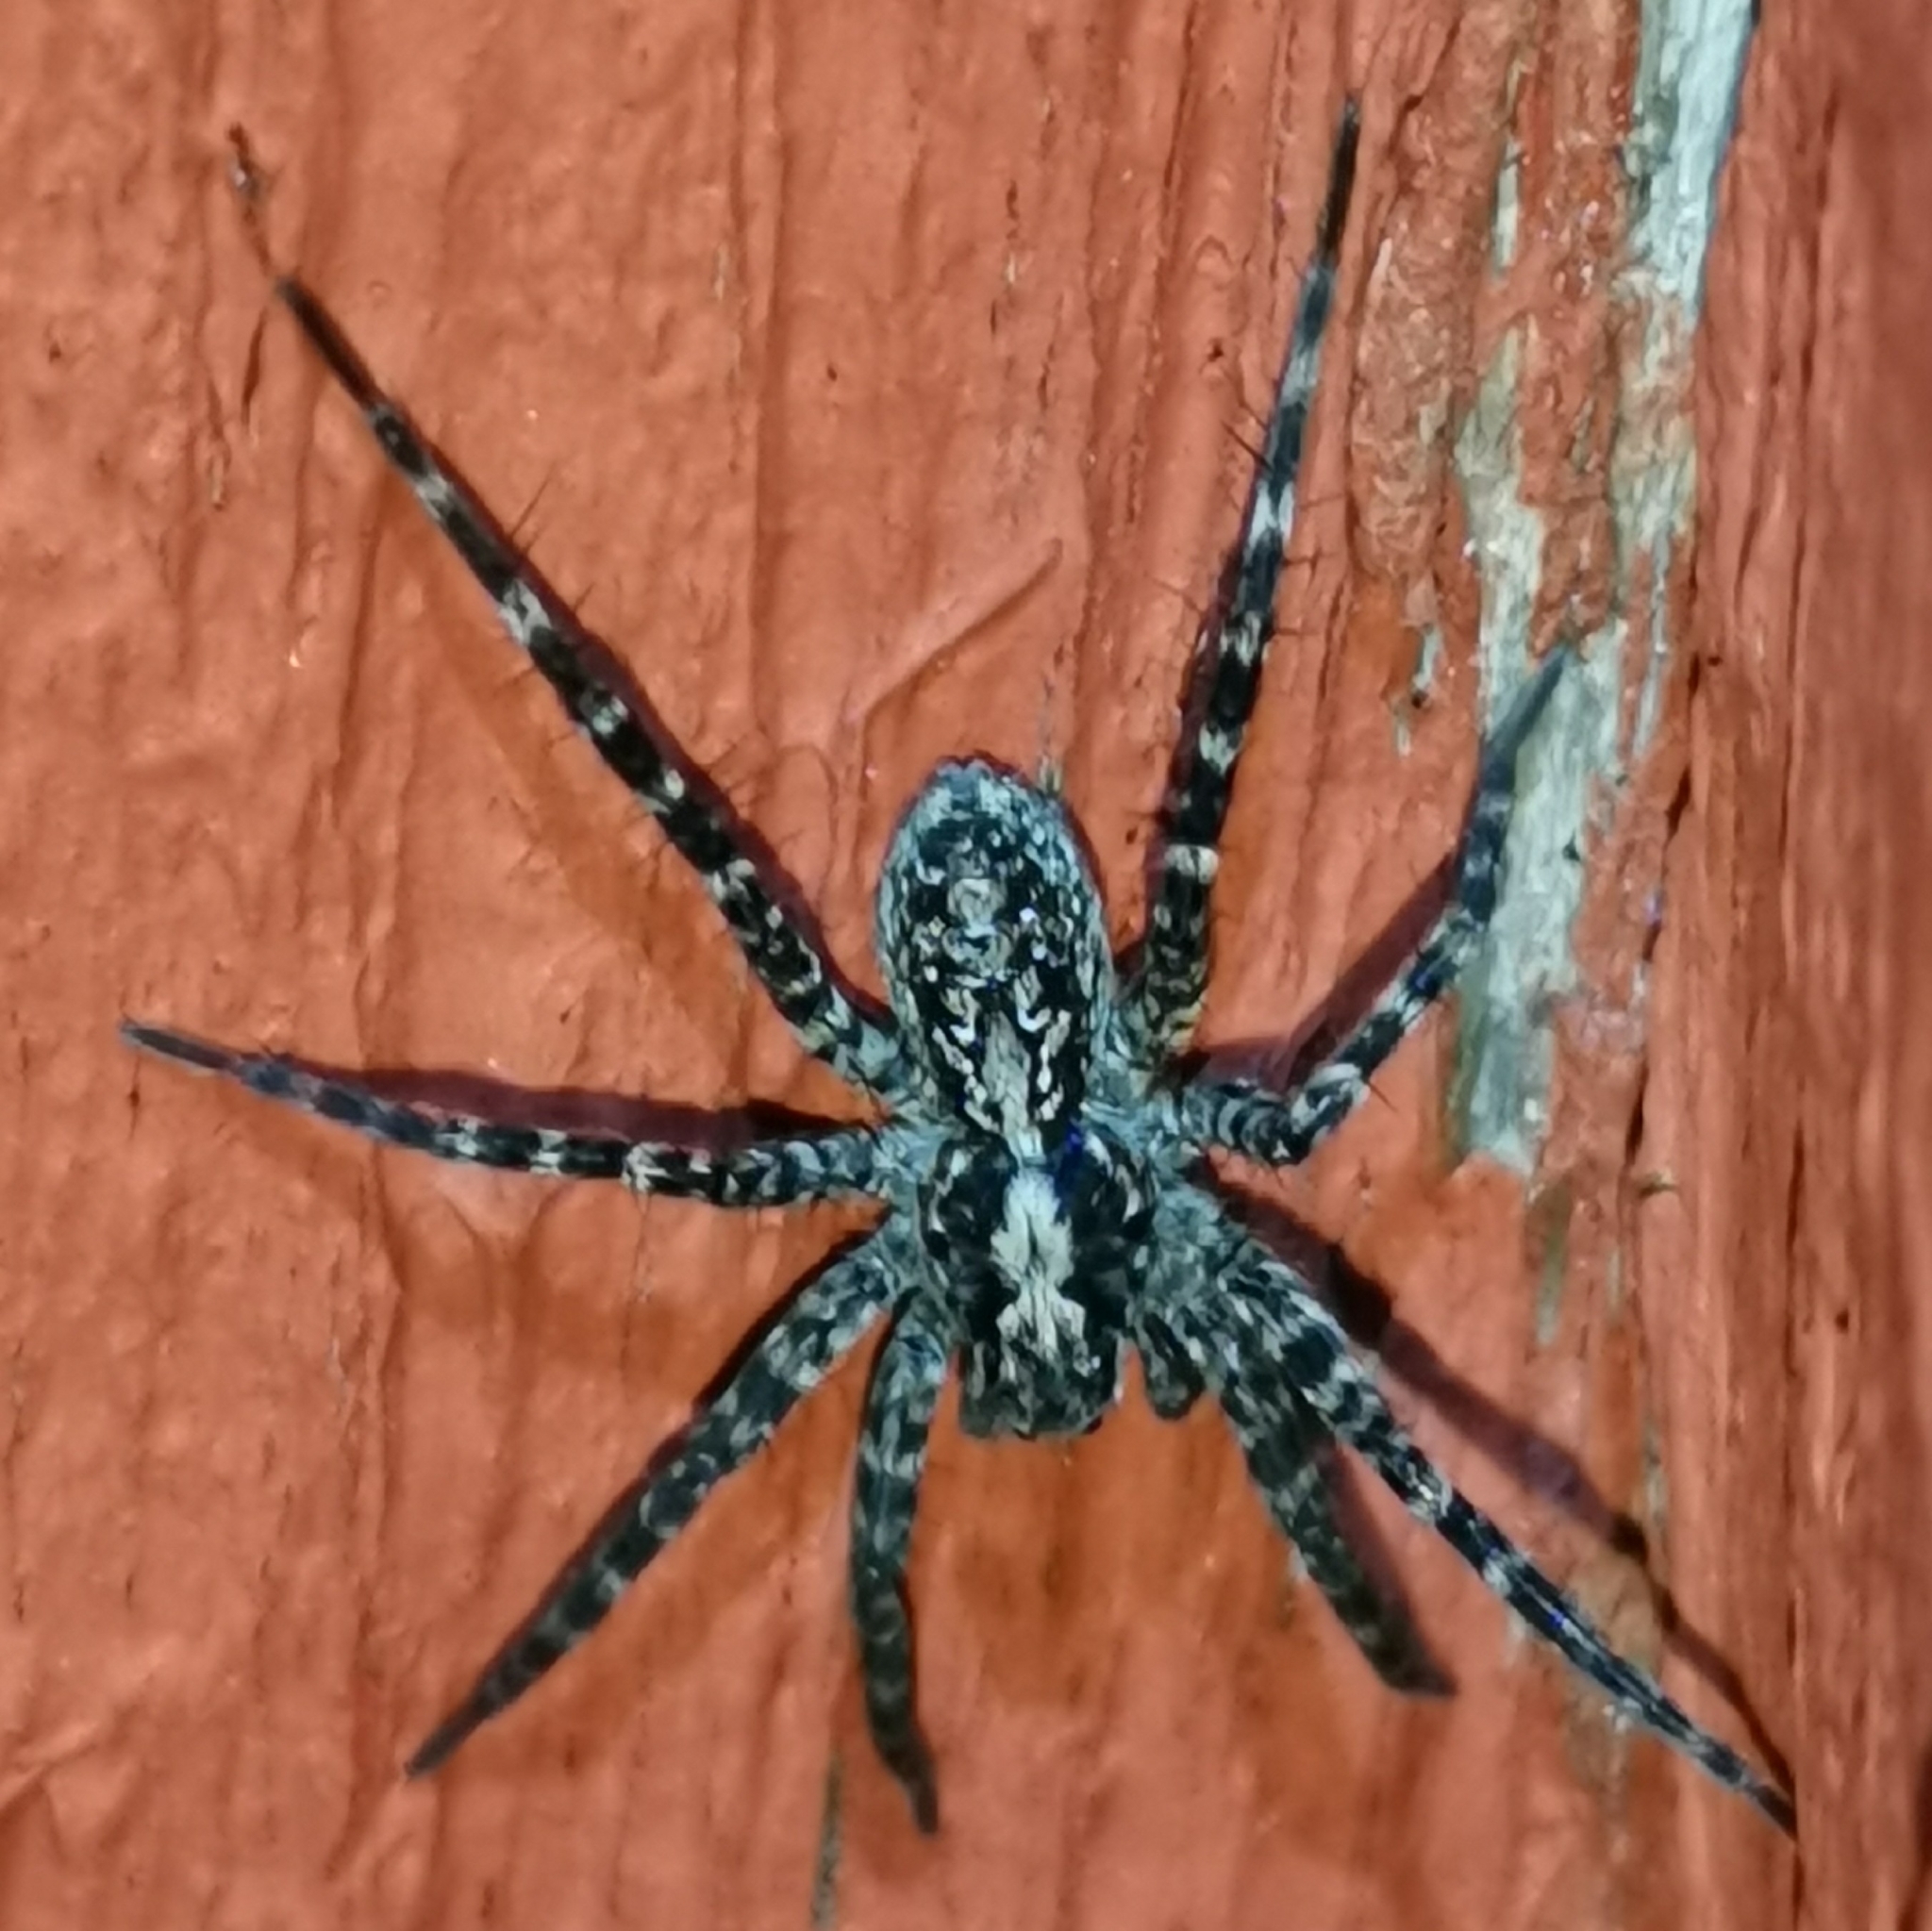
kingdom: Animalia
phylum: Arthropoda
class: Arachnida
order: Araneae
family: Lycosidae
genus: Acantholycosa
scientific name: Acantholycosa lignaria
